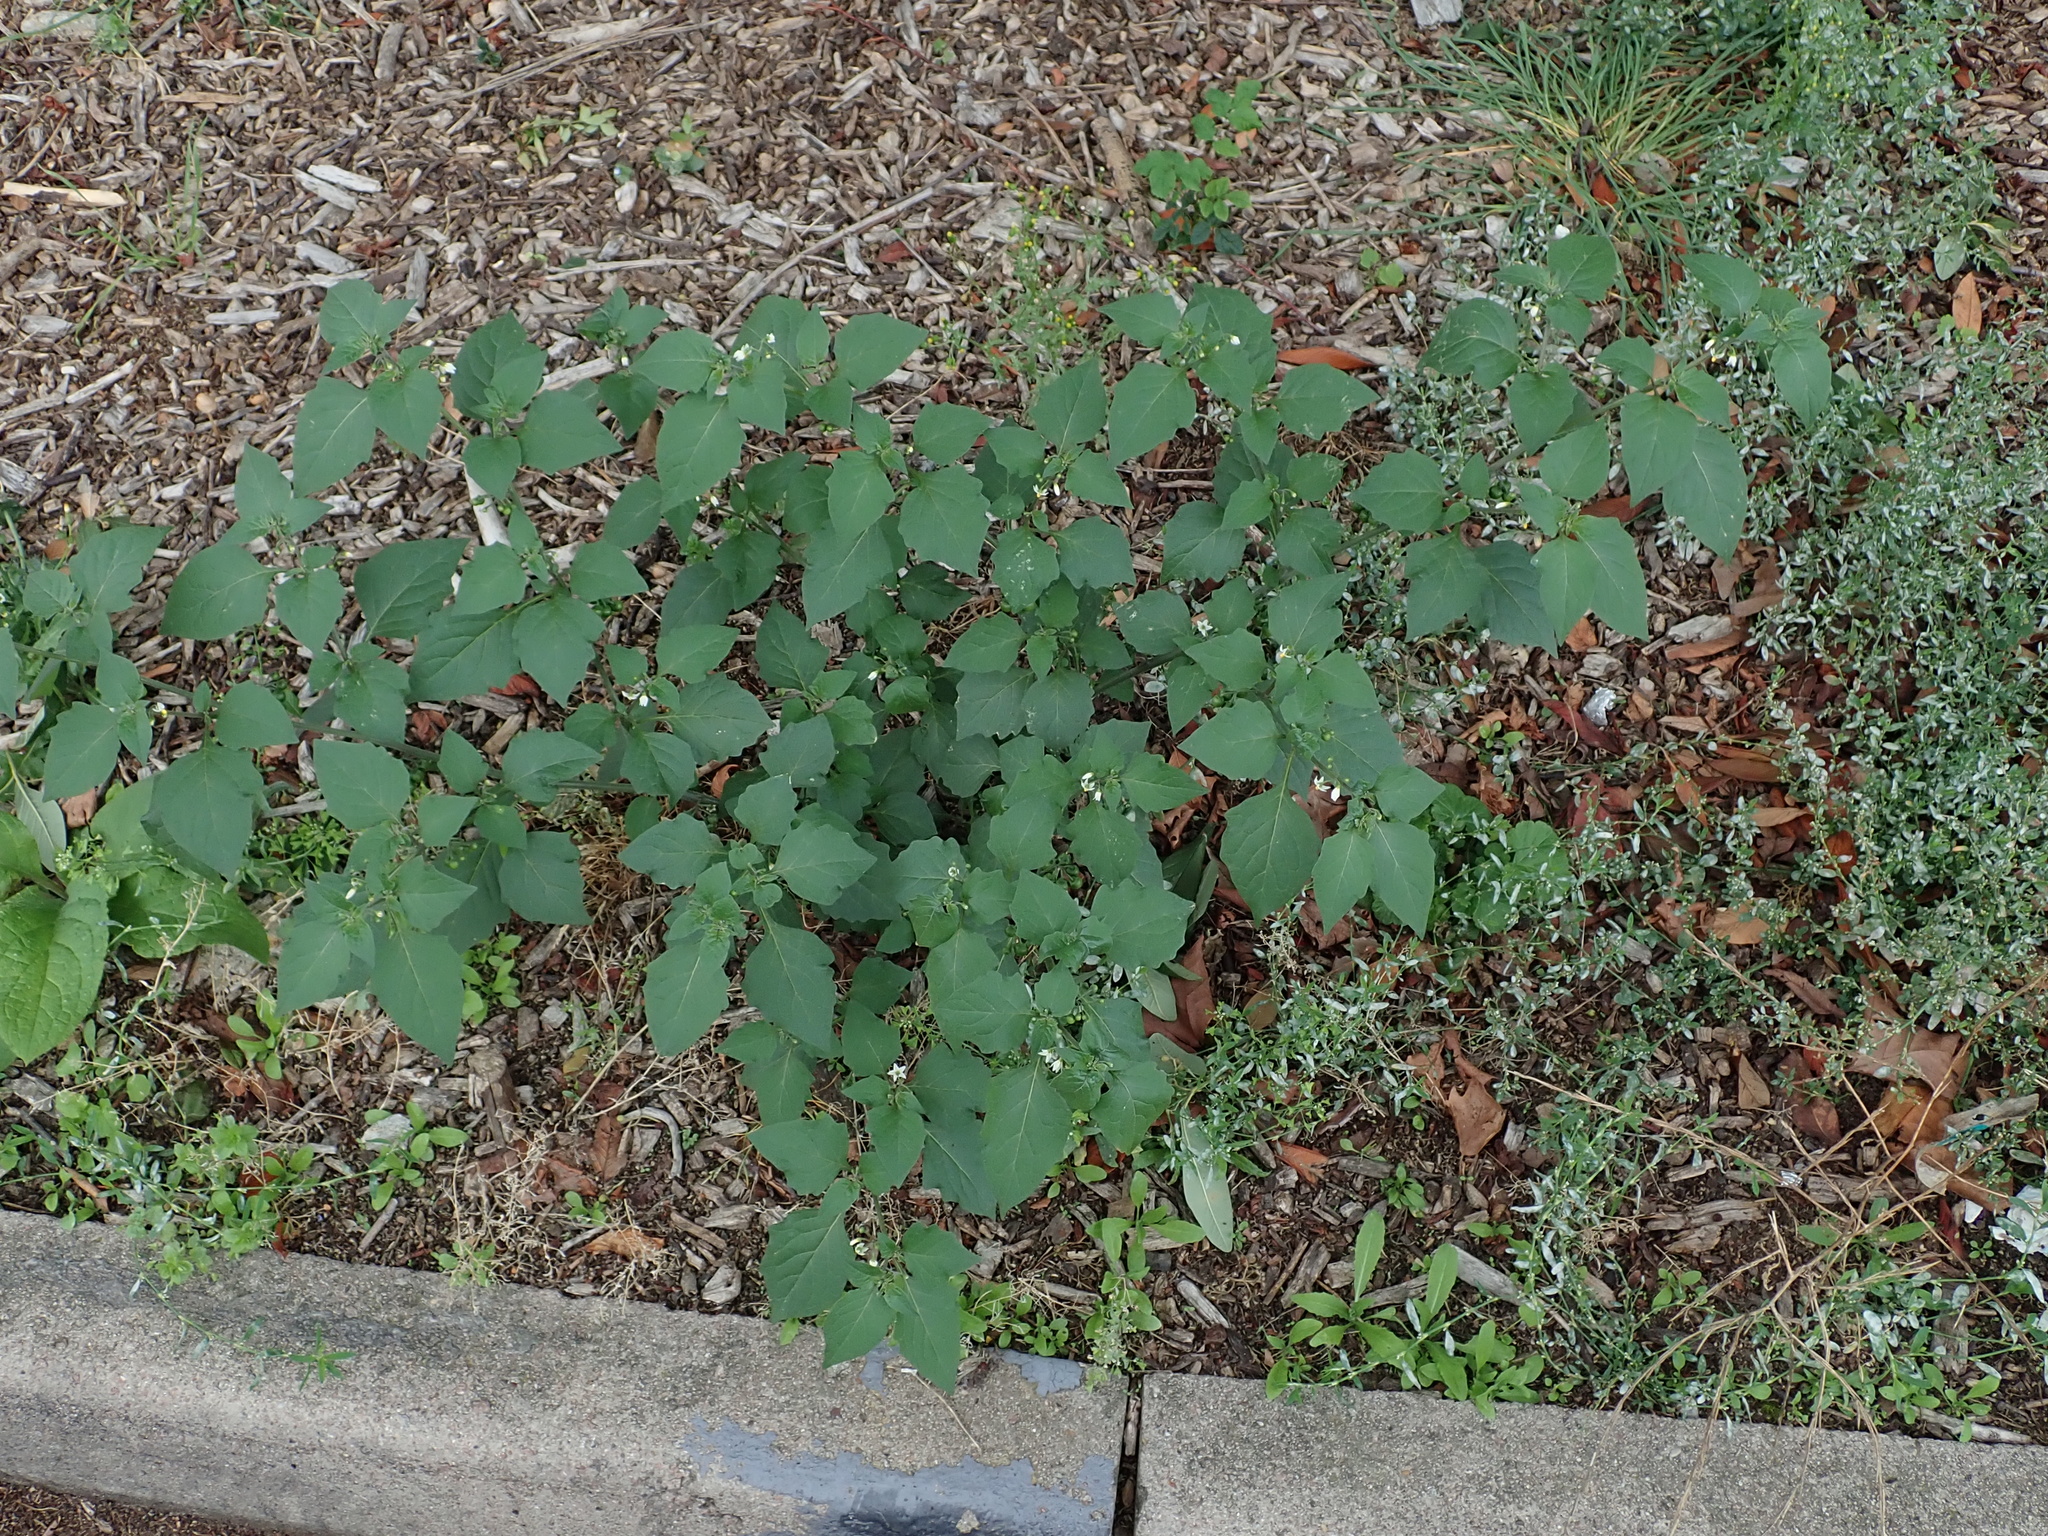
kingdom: Plantae
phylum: Tracheophyta
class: Magnoliopsida
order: Solanales
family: Solanaceae
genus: Solanum
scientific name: Solanum nigrum
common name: Black nightshade
